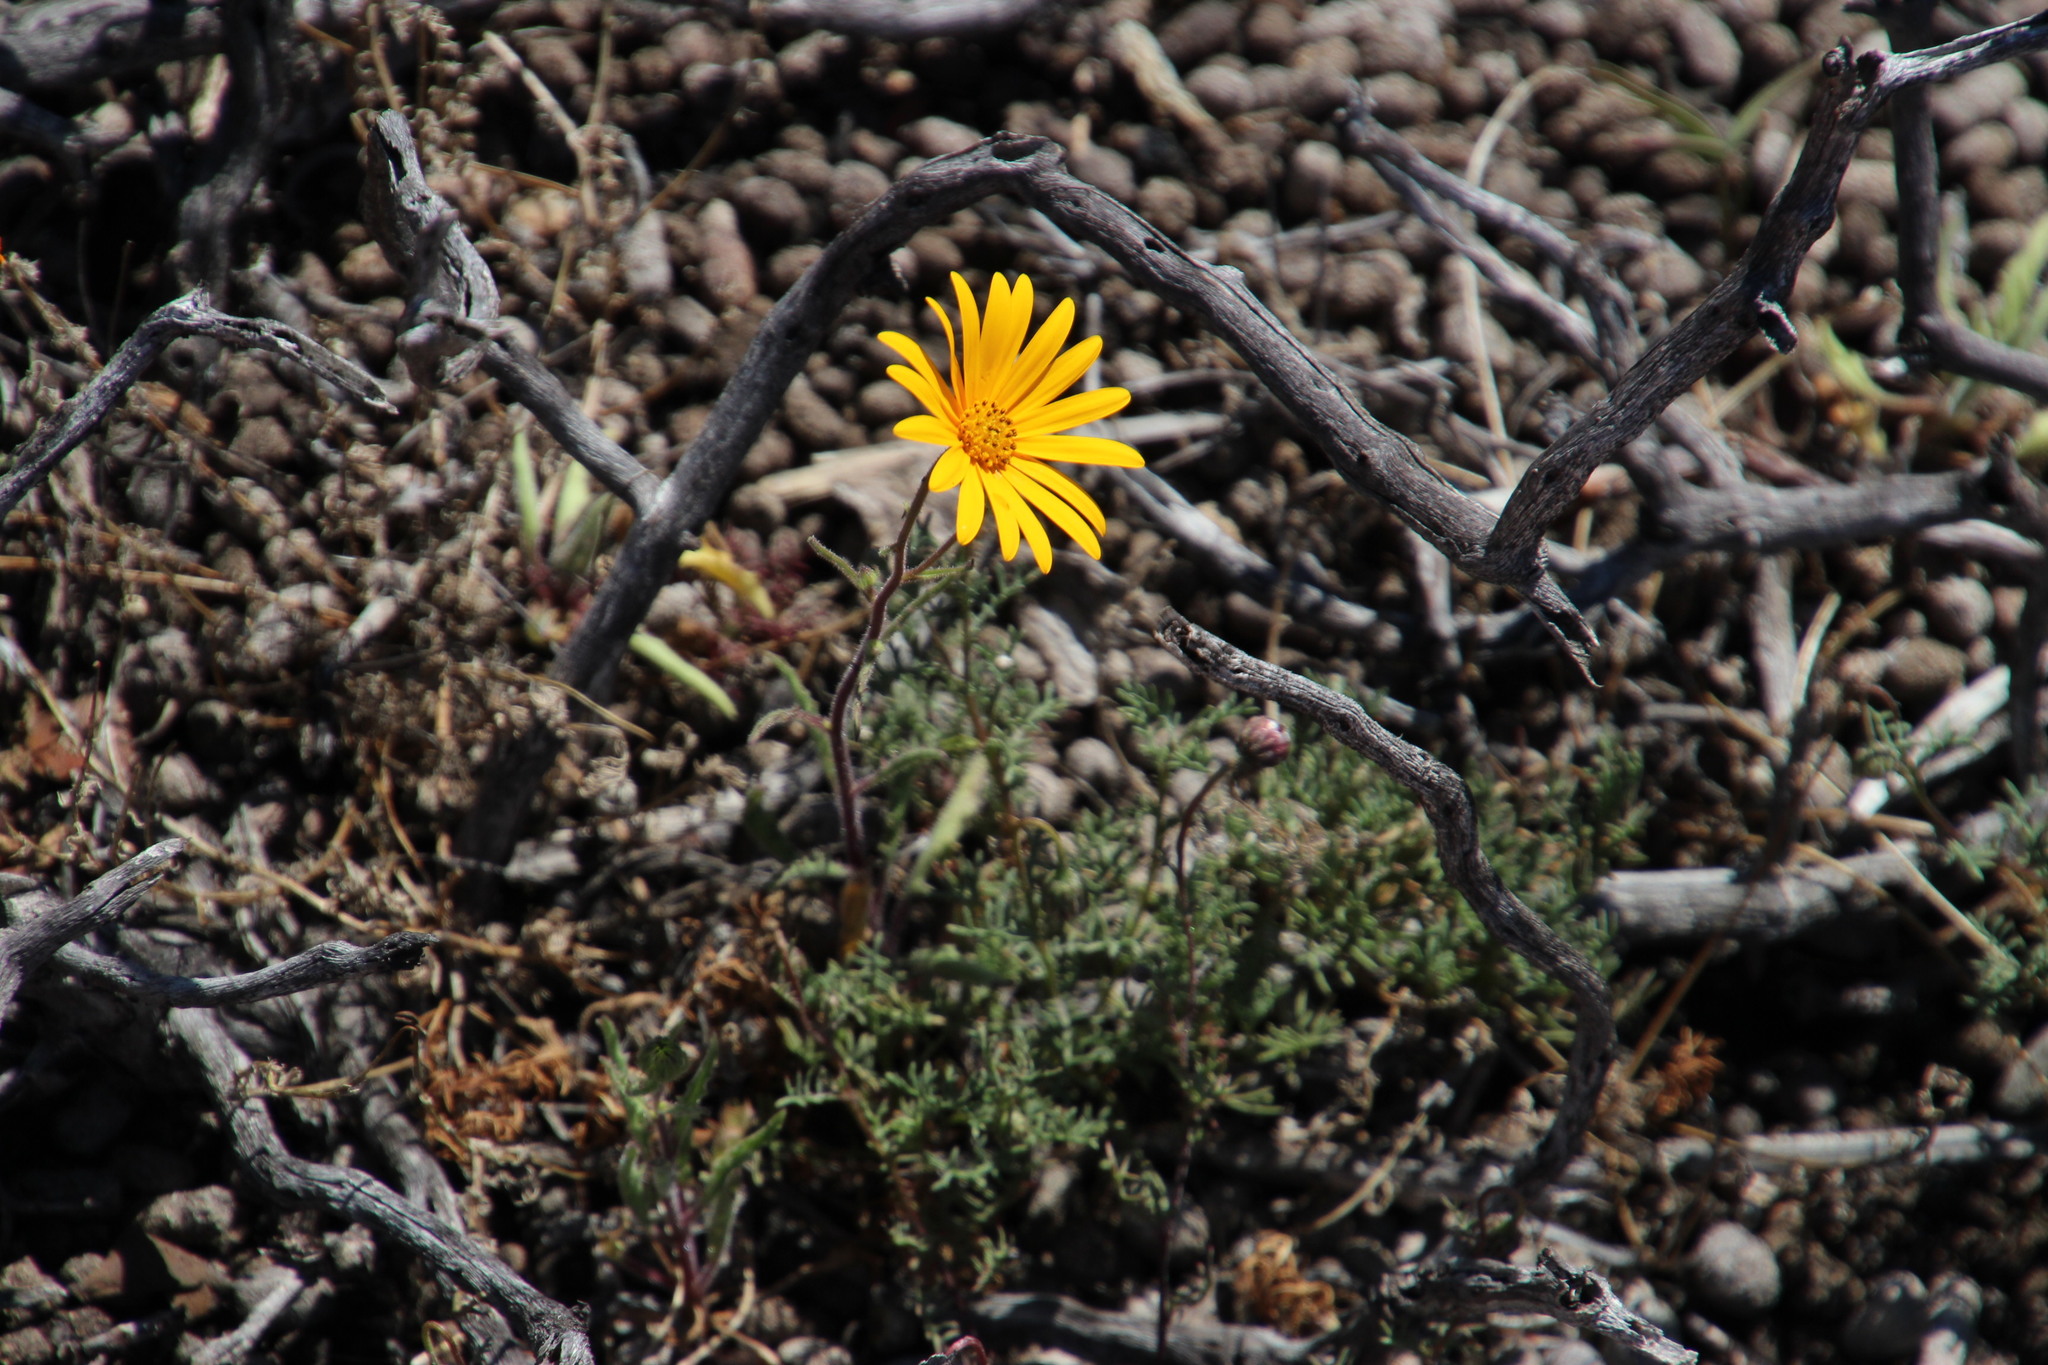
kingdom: Plantae
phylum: Tracheophyta
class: Magnoliopsida
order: Asterales
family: Asteraceae
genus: Osteospermum
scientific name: Osteospermum amplectens
